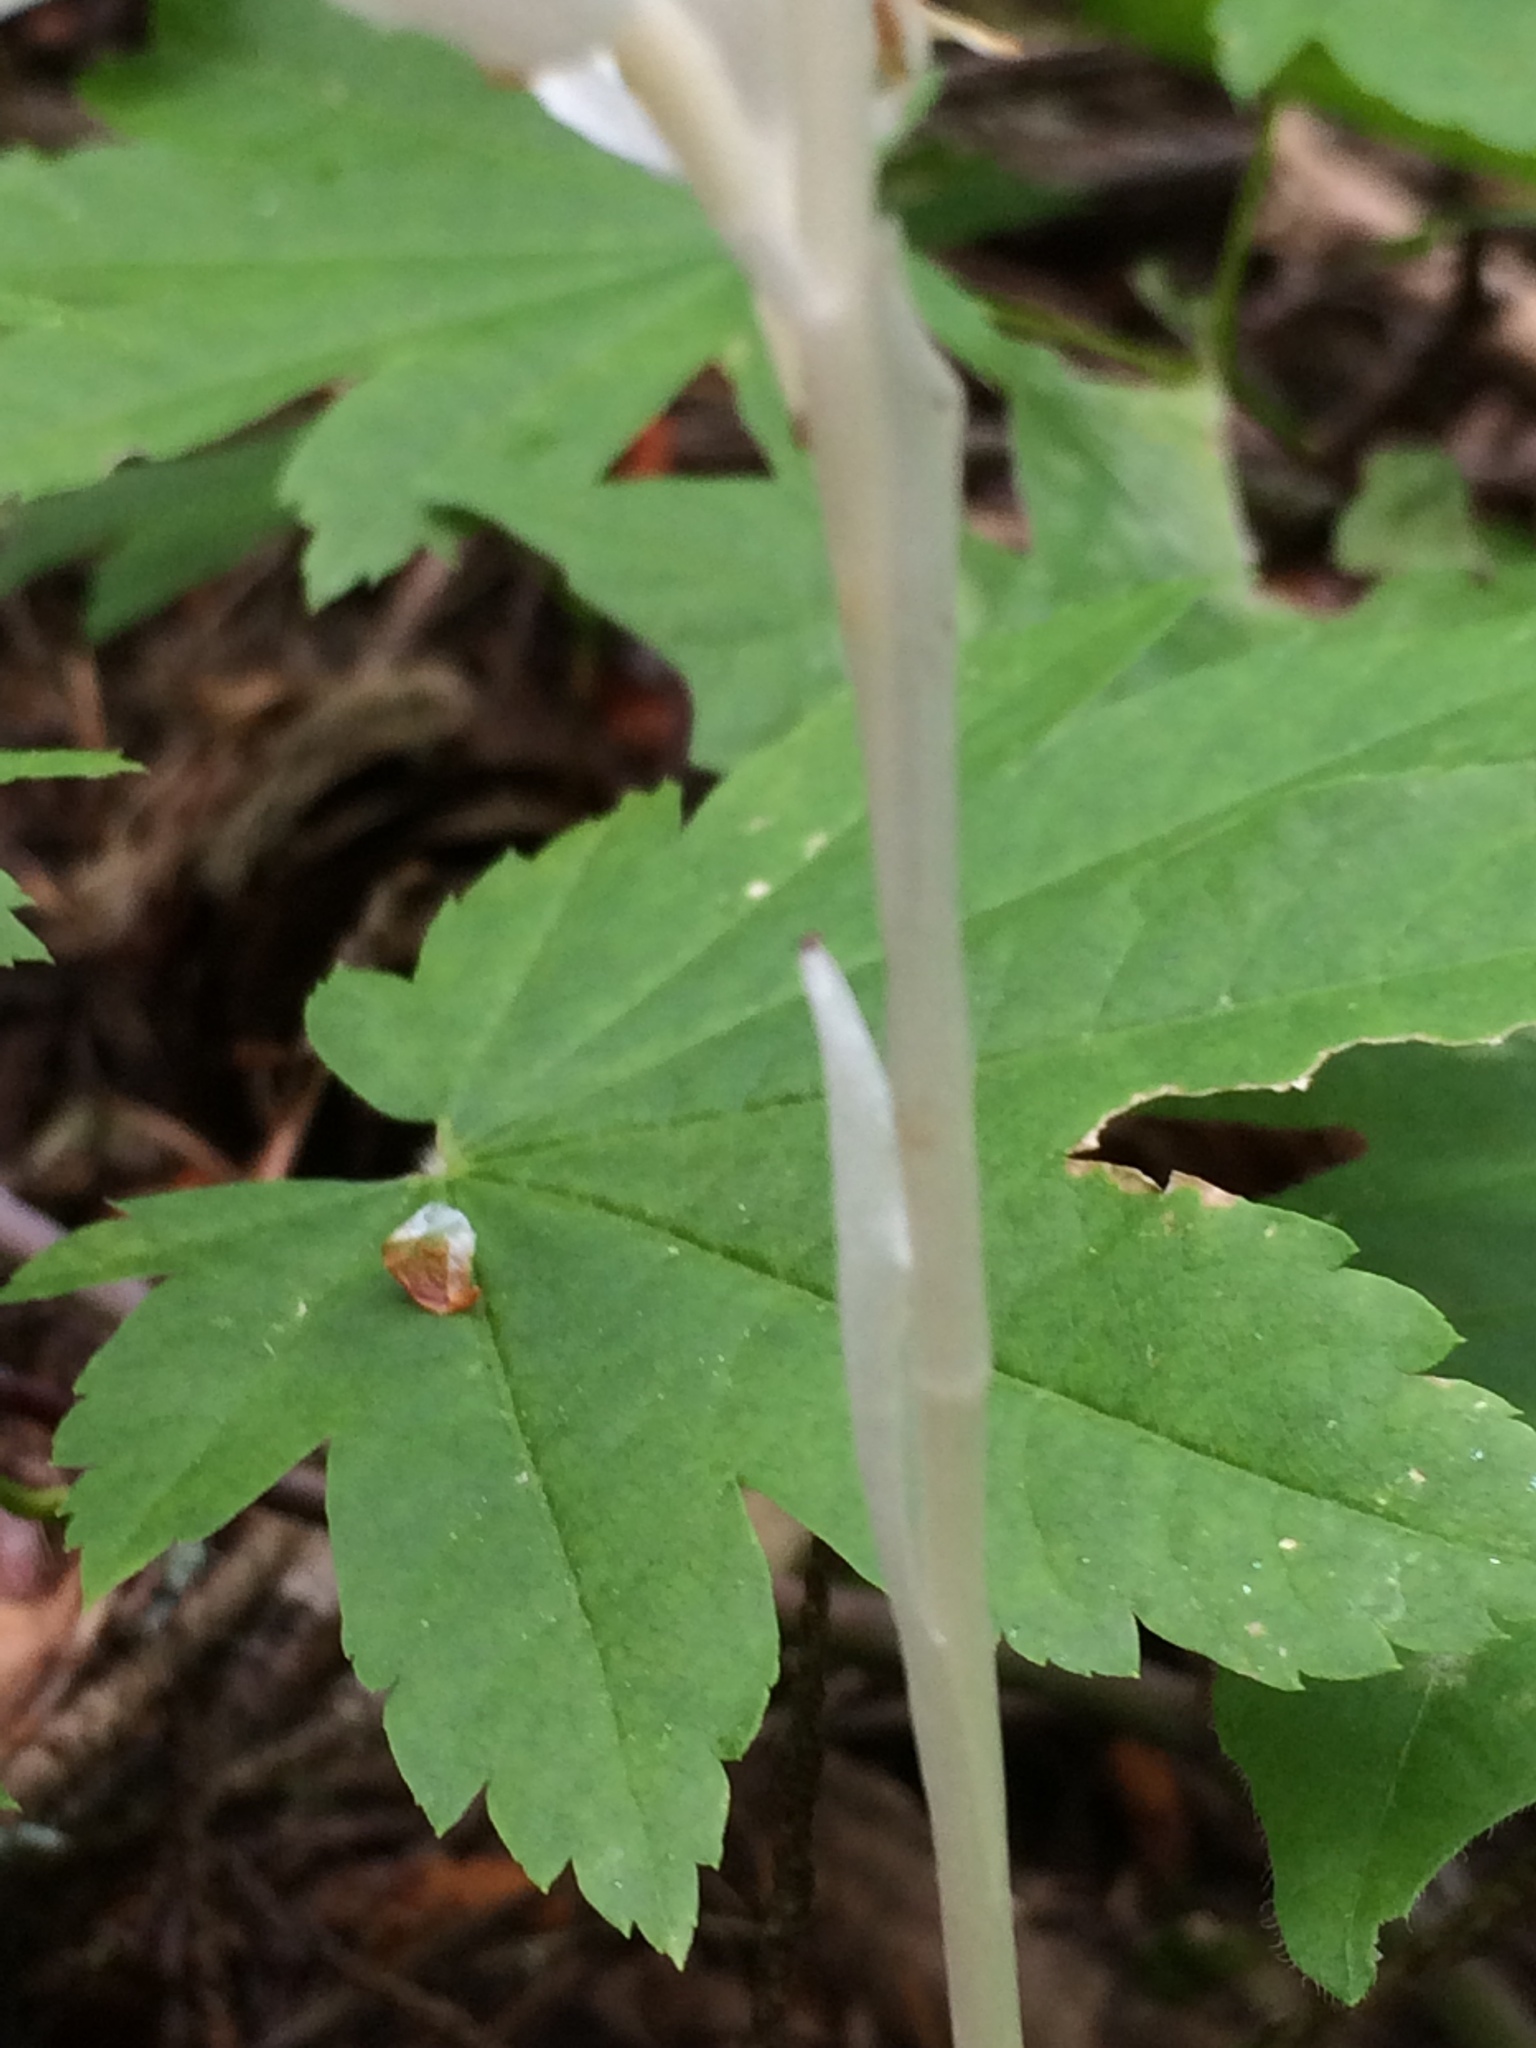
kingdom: Plantae
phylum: Tracheophyta
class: Liliopsida
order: Asparagales
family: Orchidaceae
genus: Cephalanthera
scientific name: Cephalanthera austiniae
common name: Phantom orchid
